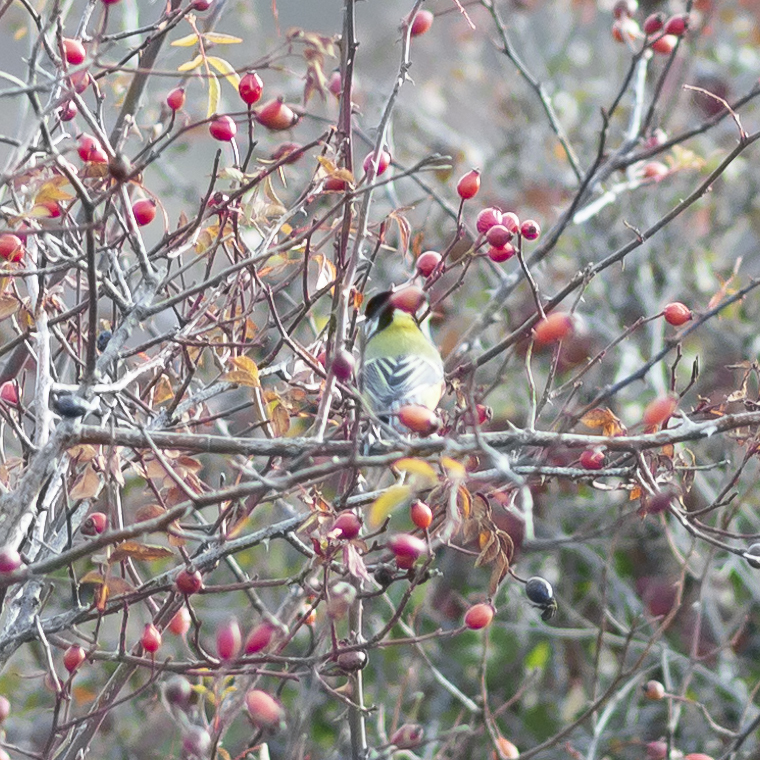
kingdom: Animalia
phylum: Chordata
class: Aves
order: Passeriformes
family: Paridae
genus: Parus
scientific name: Parus major
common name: Great tit
